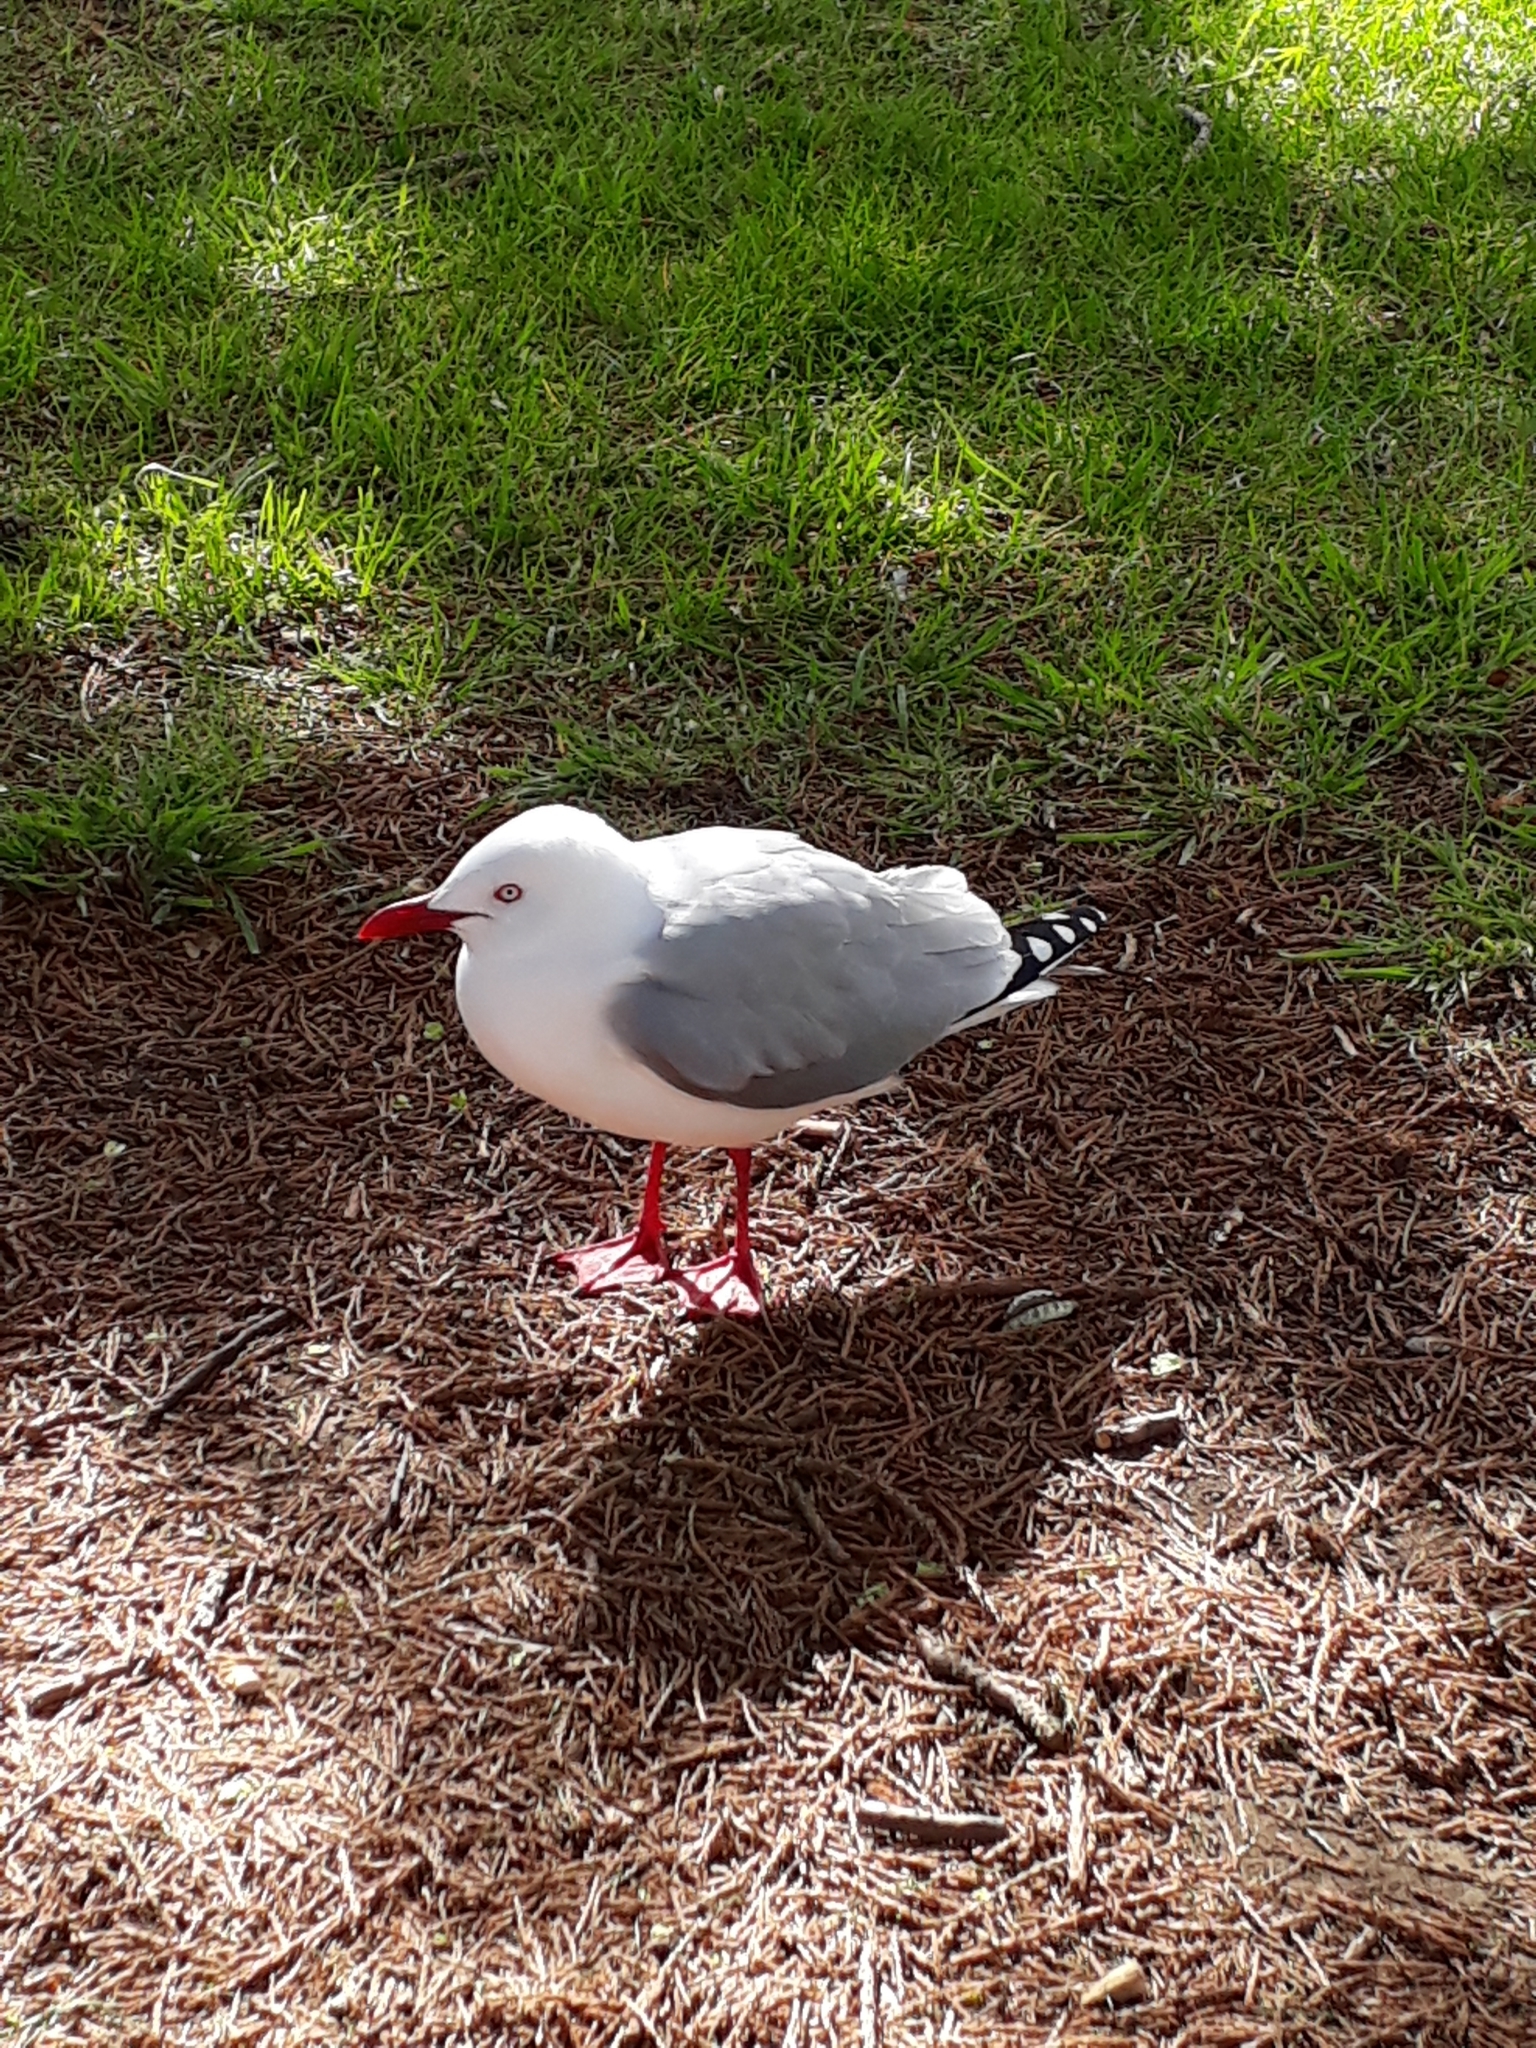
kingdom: Animalia
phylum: Chordata
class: Aves
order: Charadriiformes
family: Laridae
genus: Chroicocephalus
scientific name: Chroicocephalus novaehollandiae
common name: Silver gull
